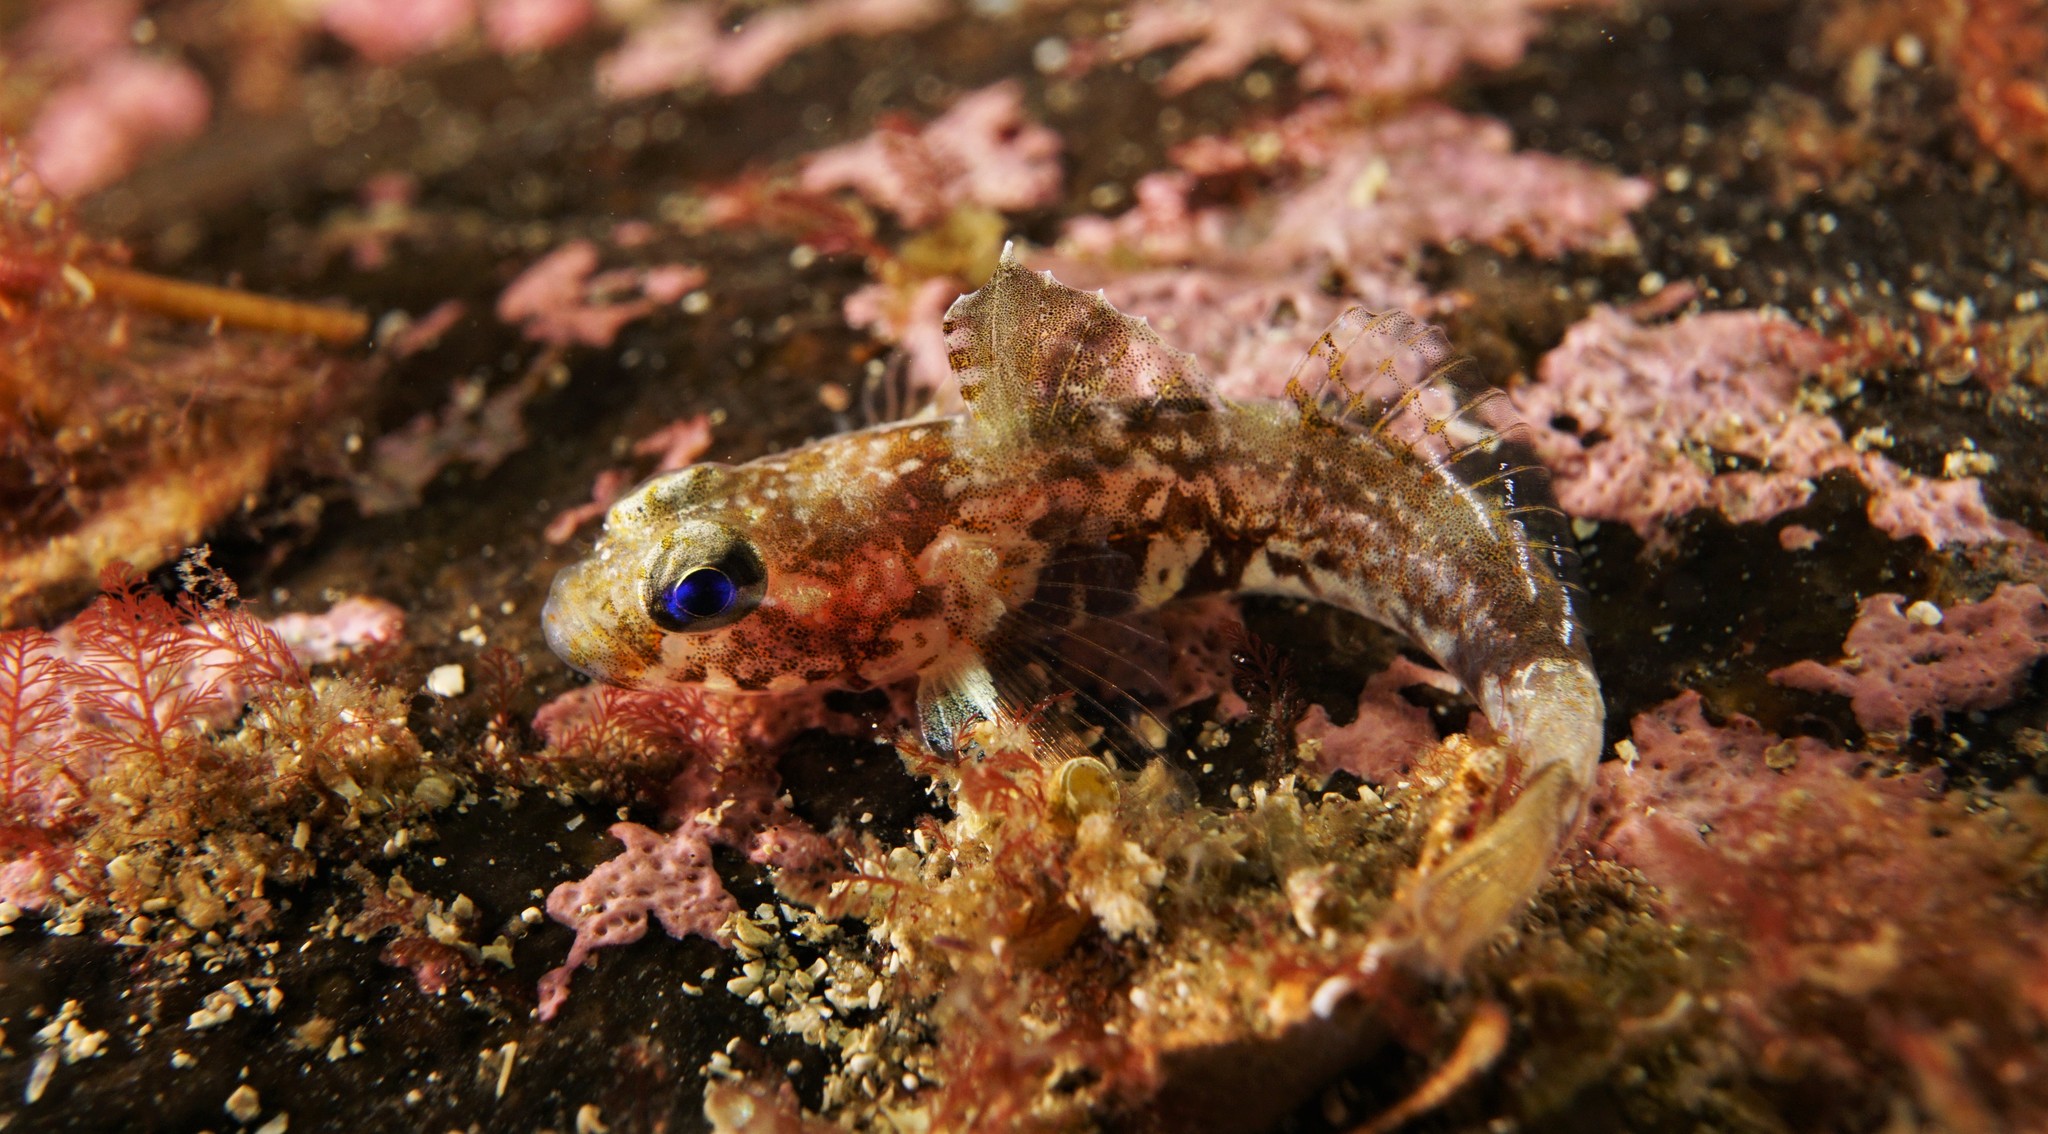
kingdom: Animalia
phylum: Chordata
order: Perciformes
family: Gobiidae
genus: Lebetus
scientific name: Lebetus scorpioides
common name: Diminutive goby
